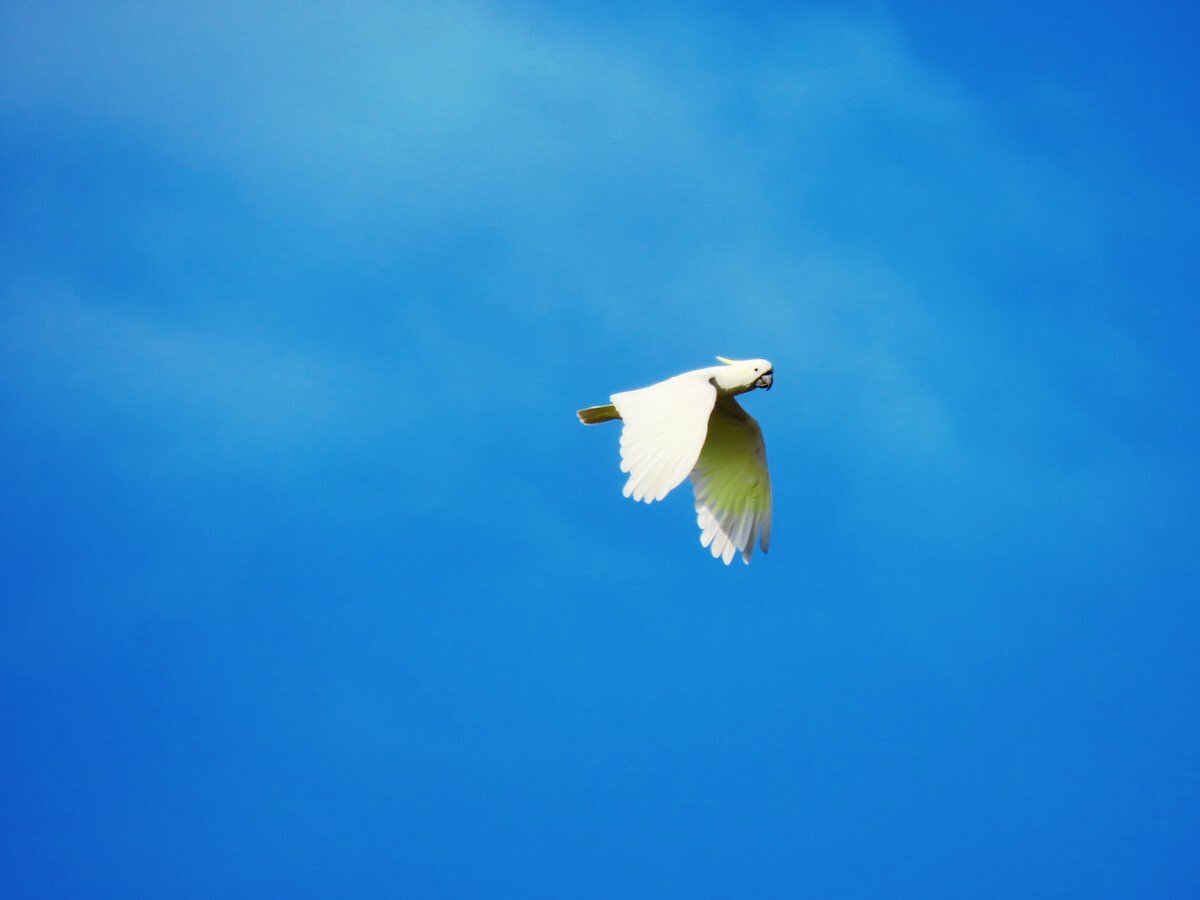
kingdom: Animalia
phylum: Chordata
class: Aves
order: Psittaciformes
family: Psittacidae
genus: Cacatua
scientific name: Cacatua galerita
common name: Sulphur-crested cockatoo
